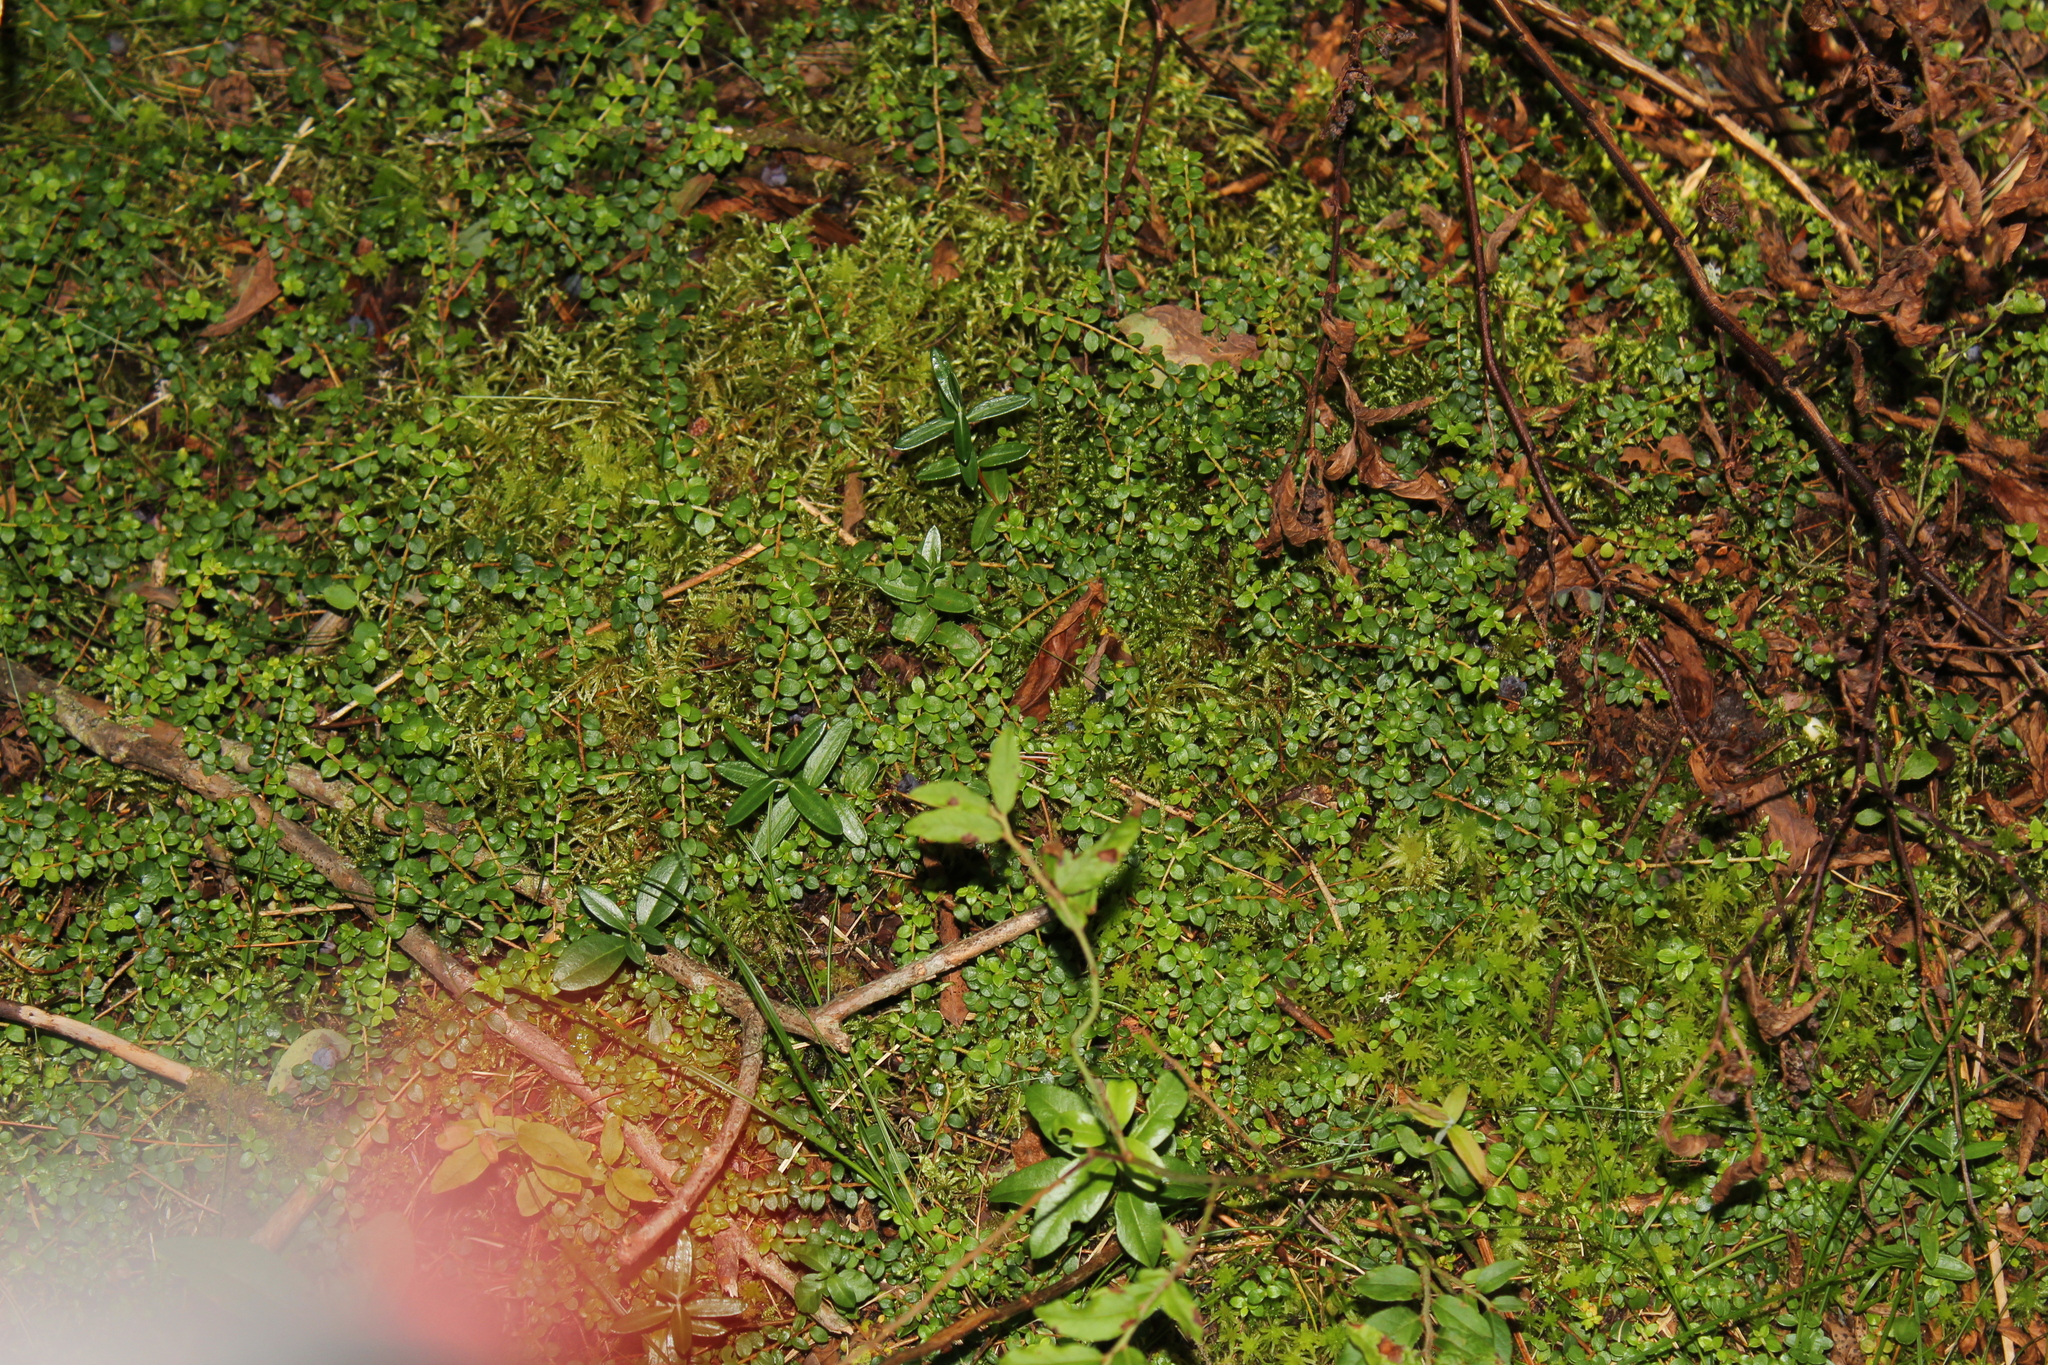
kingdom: Plantae
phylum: Tracheophyta
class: Magnoliopsida
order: Ericales
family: Ericaceae
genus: Gaultheria
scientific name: Gaultheria hispidula
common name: Cancer wintergreen
